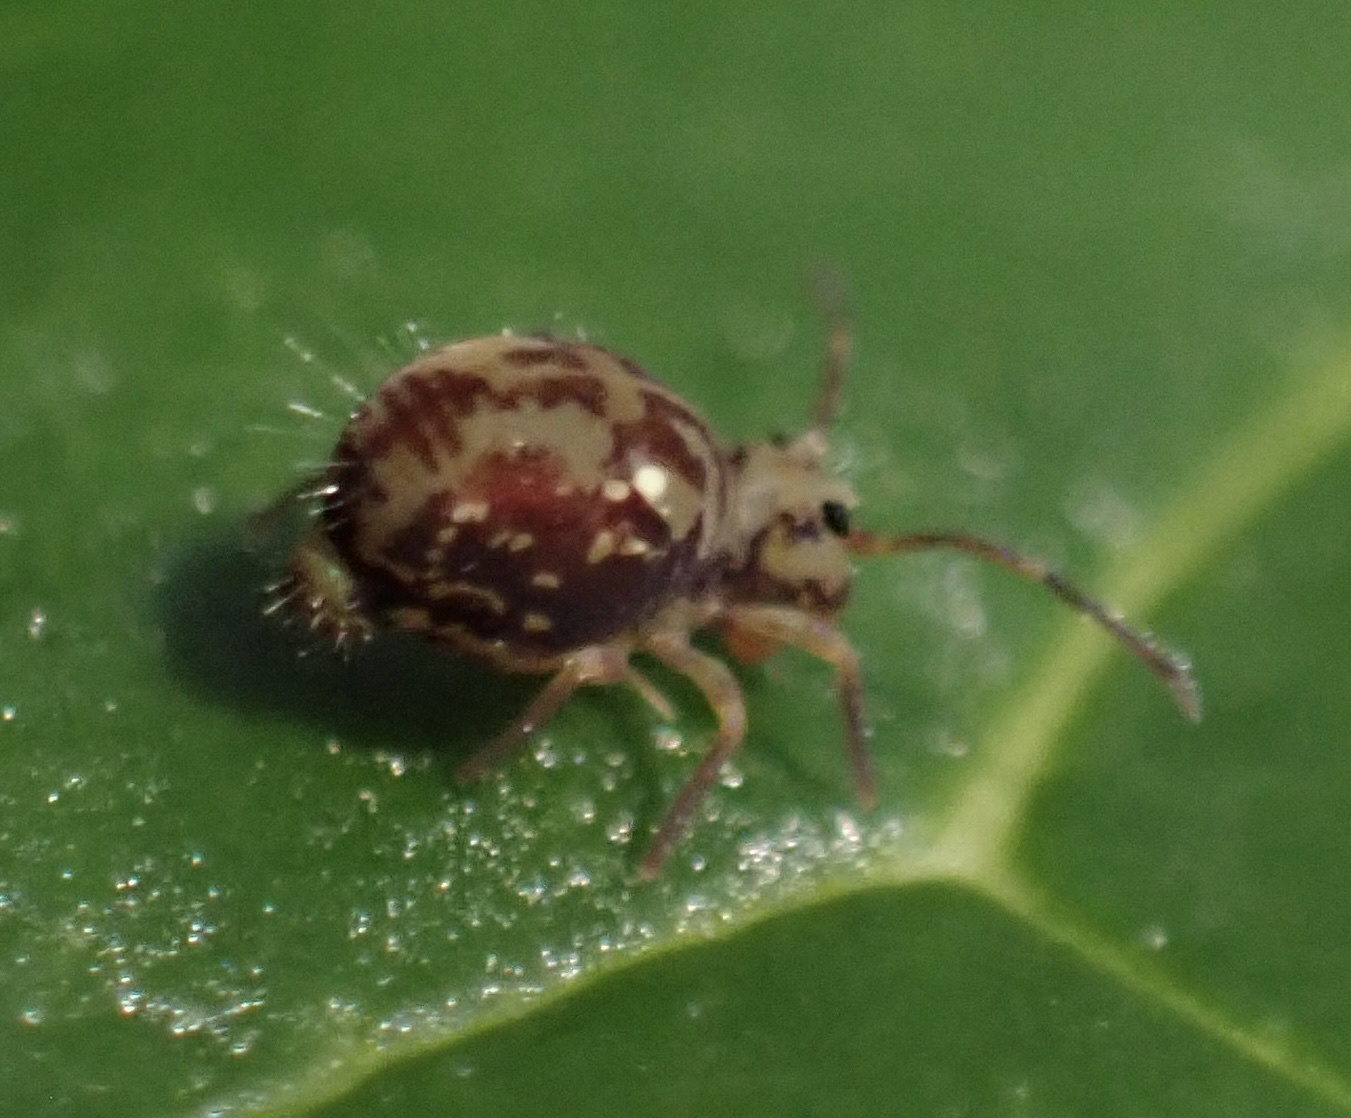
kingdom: Animalia
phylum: Arthropoda
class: Collembola
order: Symphypleona
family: Dicyrtomidae
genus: Dicyrtomina
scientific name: Dicyrtomina saundersi
